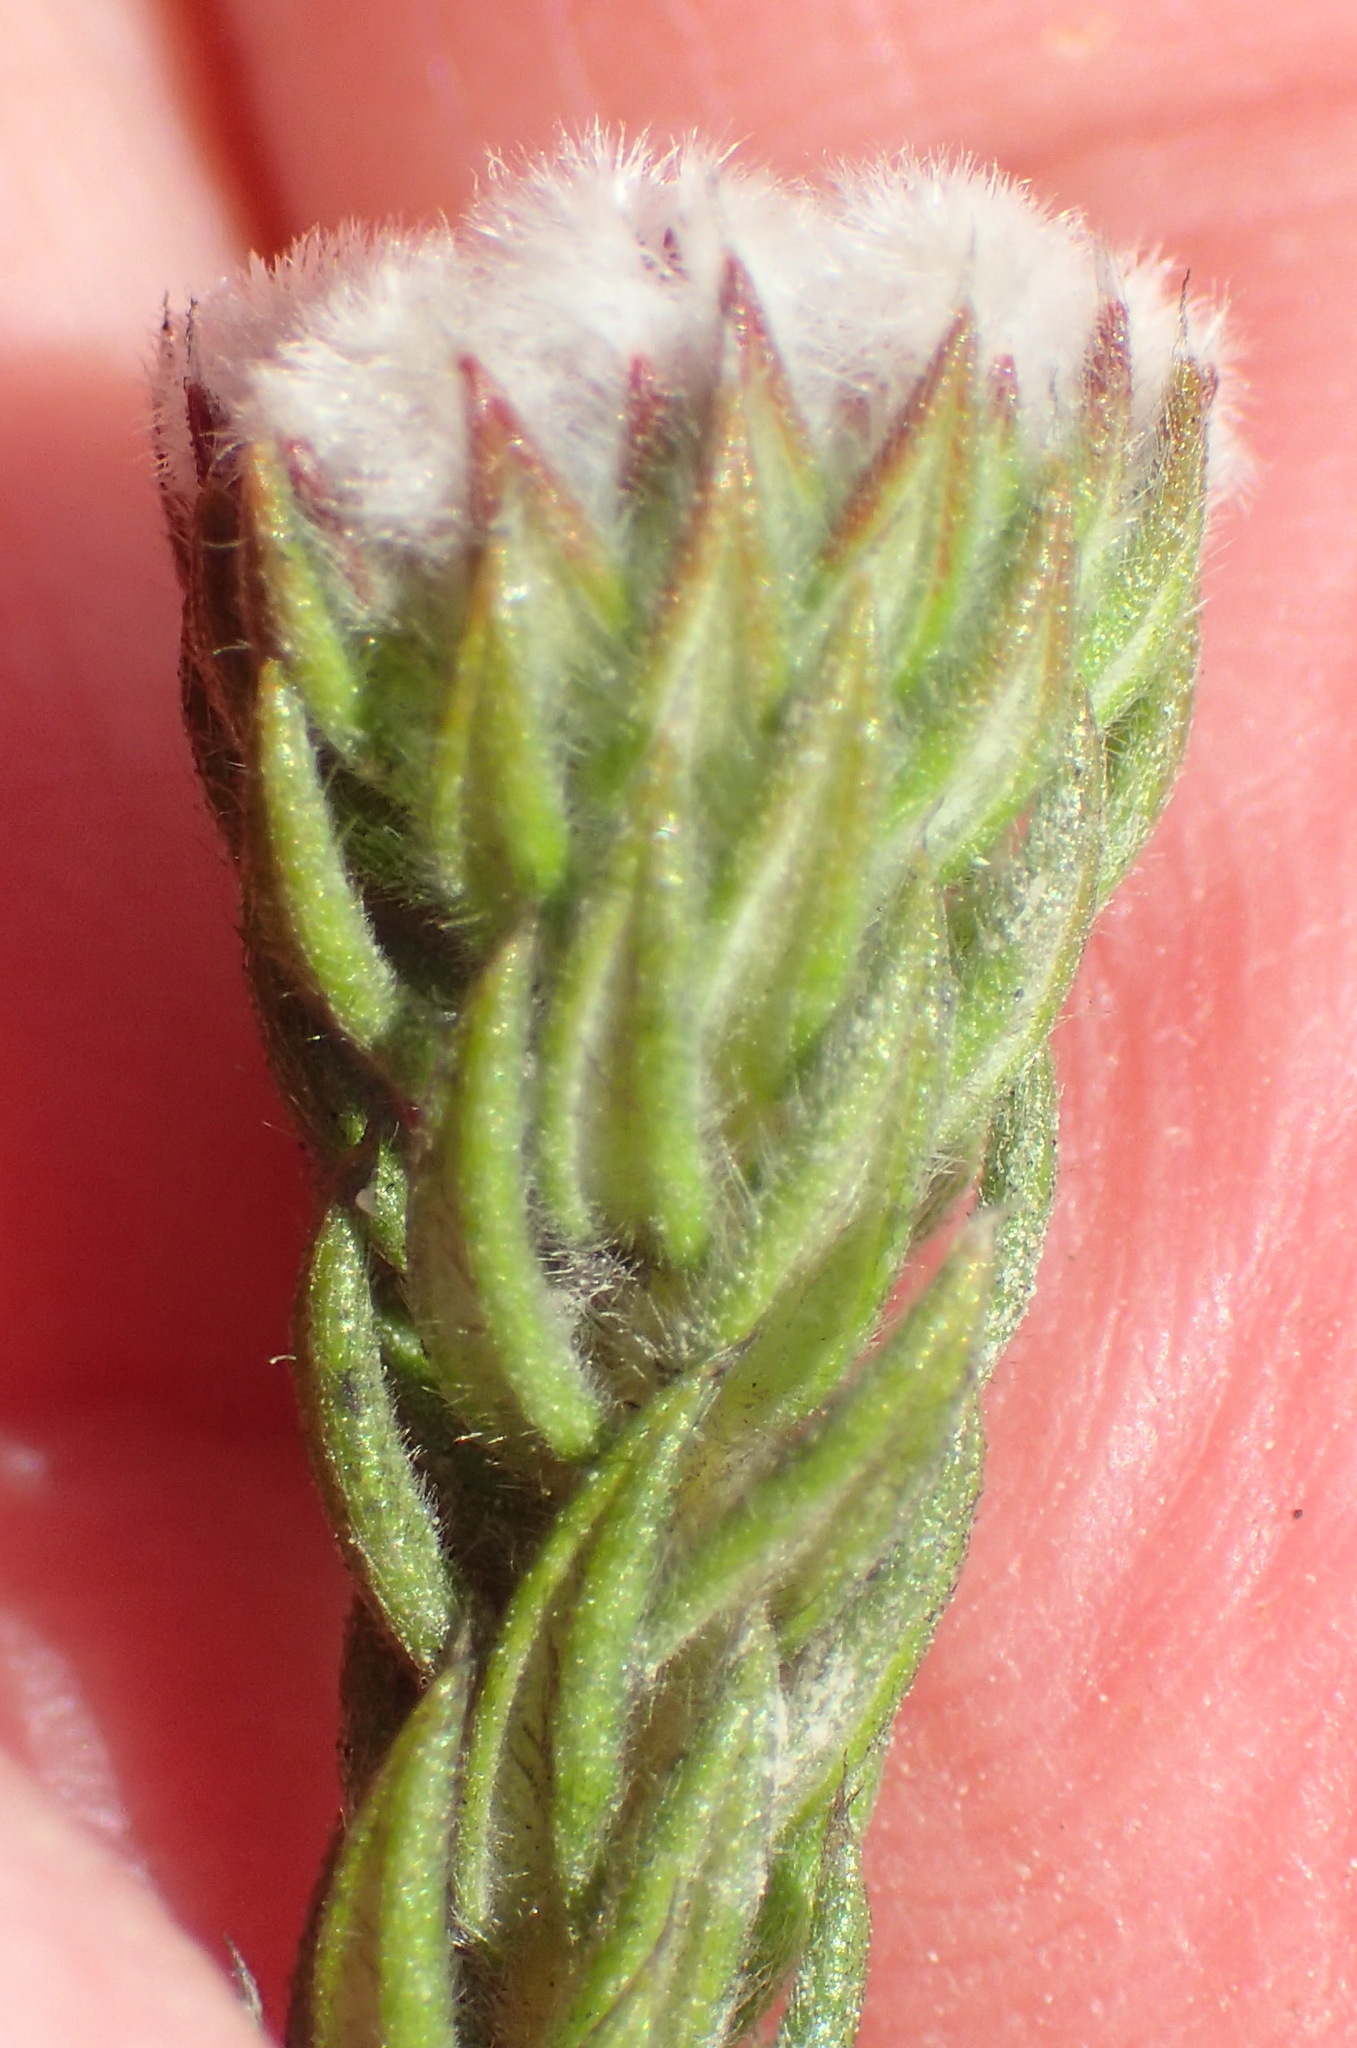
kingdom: Plantae
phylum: Tracheophyta
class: Magnoliopsida
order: Rosales
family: Rhamnaceae
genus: Phylica
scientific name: Phylica purpurea
